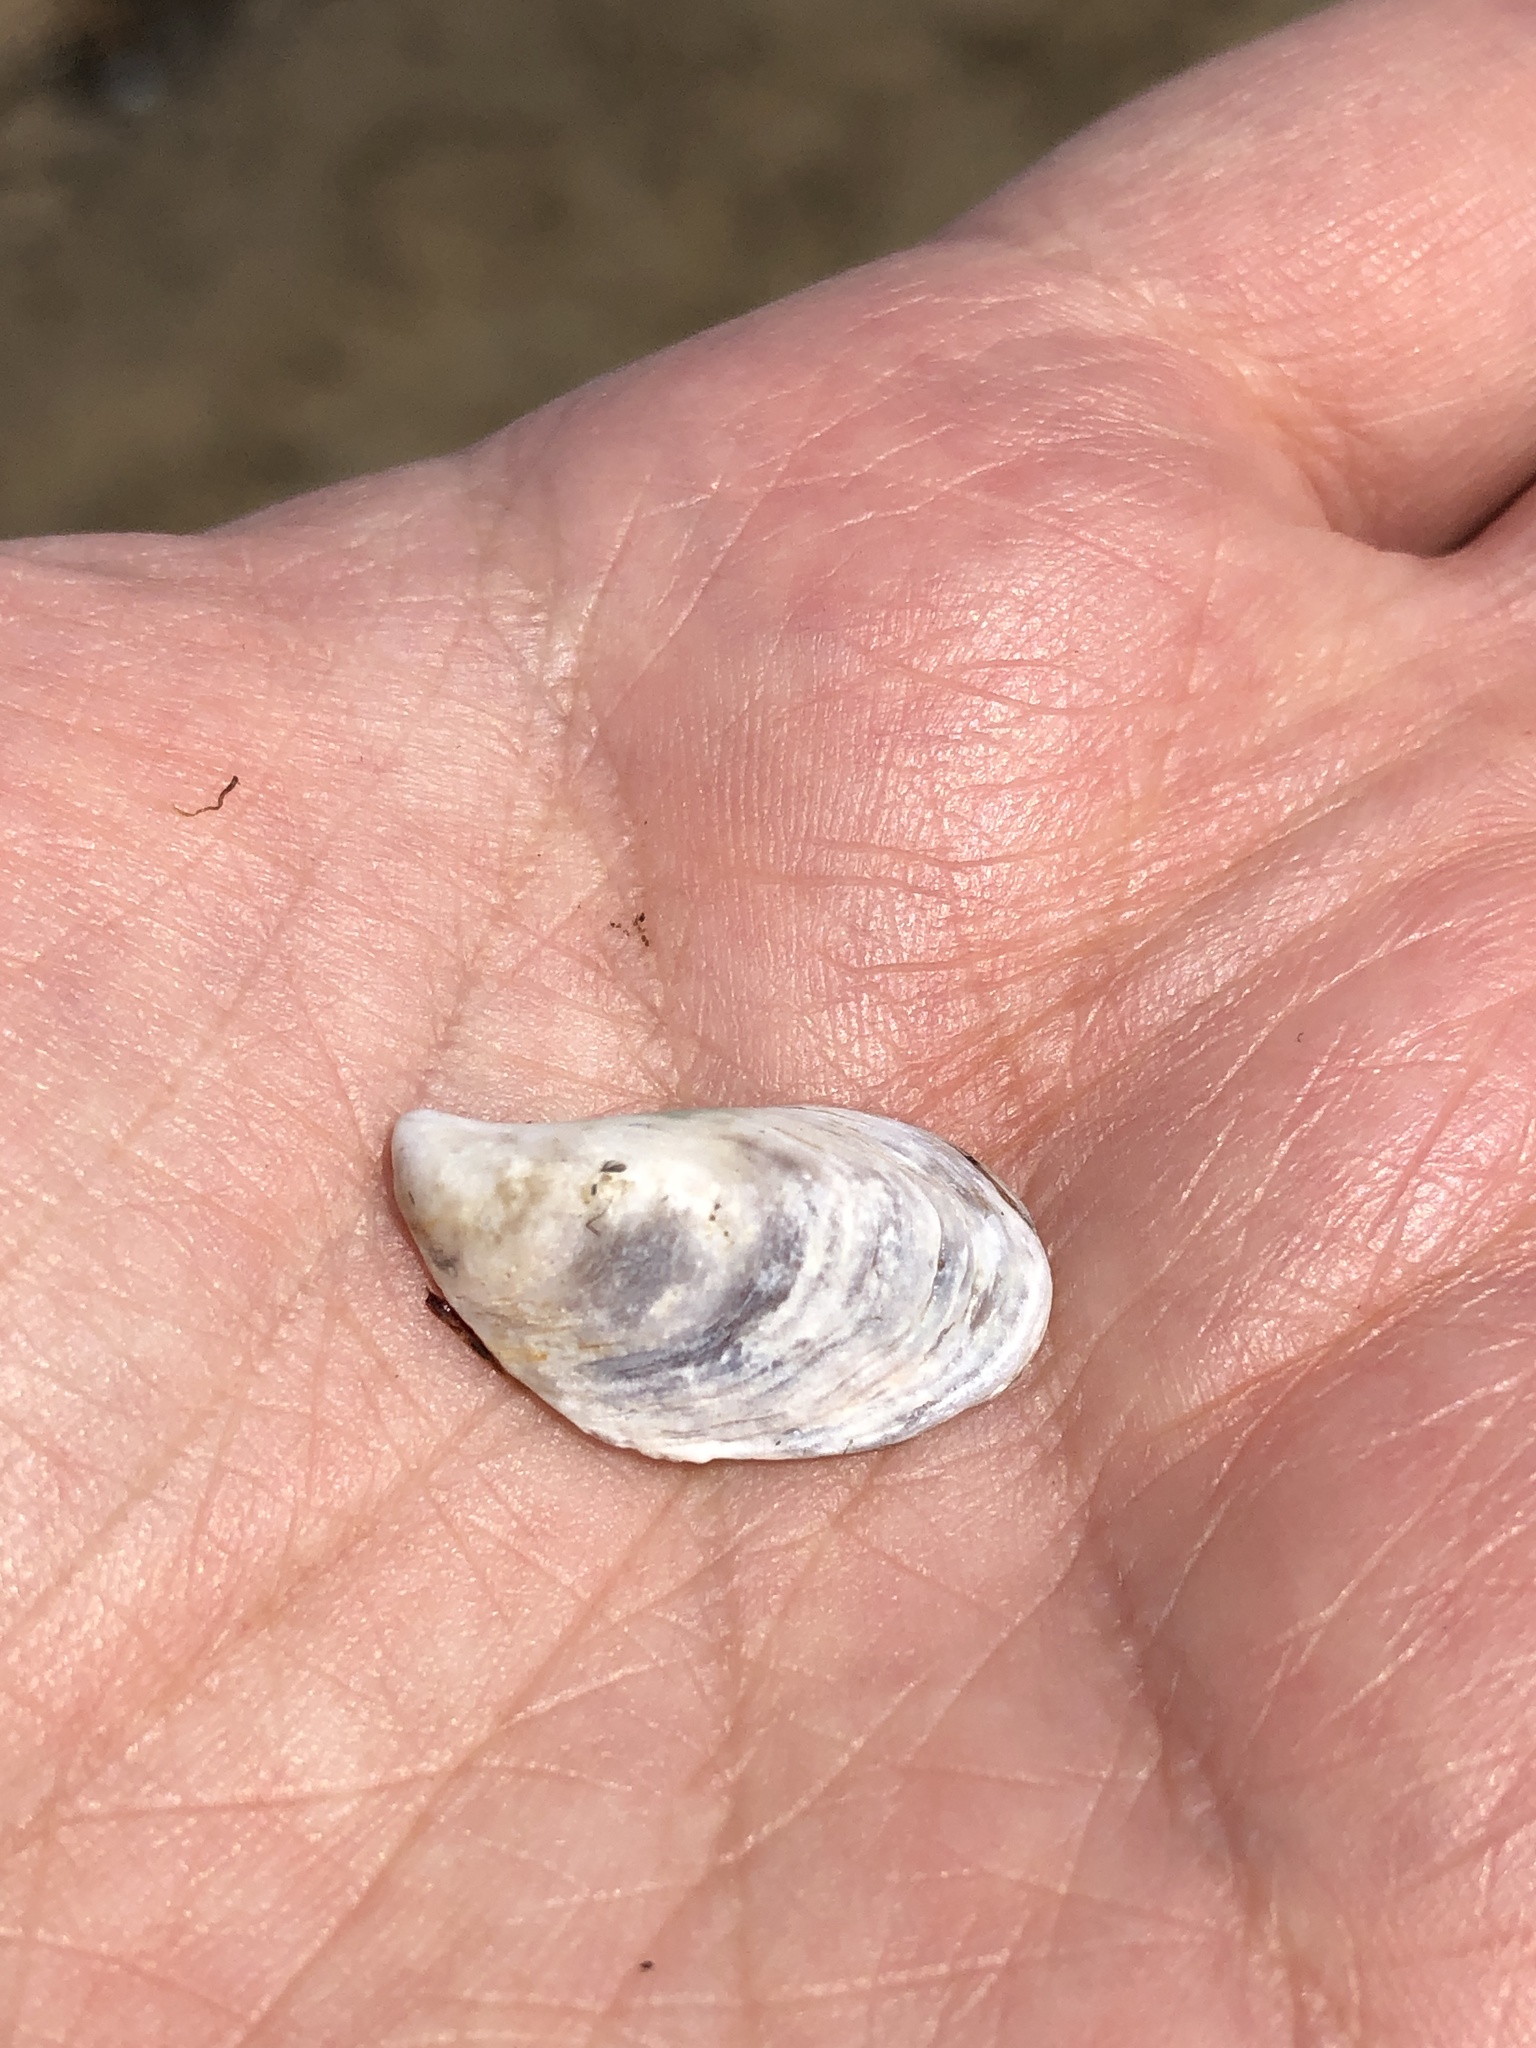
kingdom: Animalia
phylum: Mollusca
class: Bivalvia
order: Myida
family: Dreissenidae
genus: Dreissena
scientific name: Dreissena bugensis
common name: Quagga mussel
